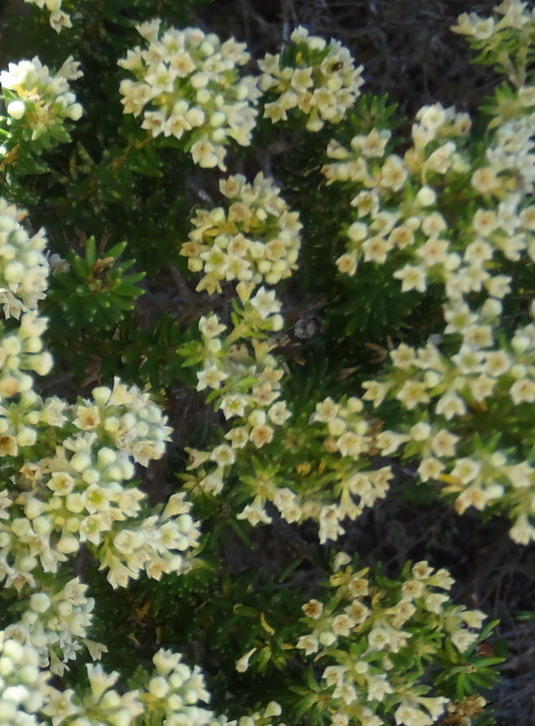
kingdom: Plantae
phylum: Tracheophyta
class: Magnoliopsida
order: Rosales
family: Rhamnaceae
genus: Phylica
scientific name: Phylica axillaris
